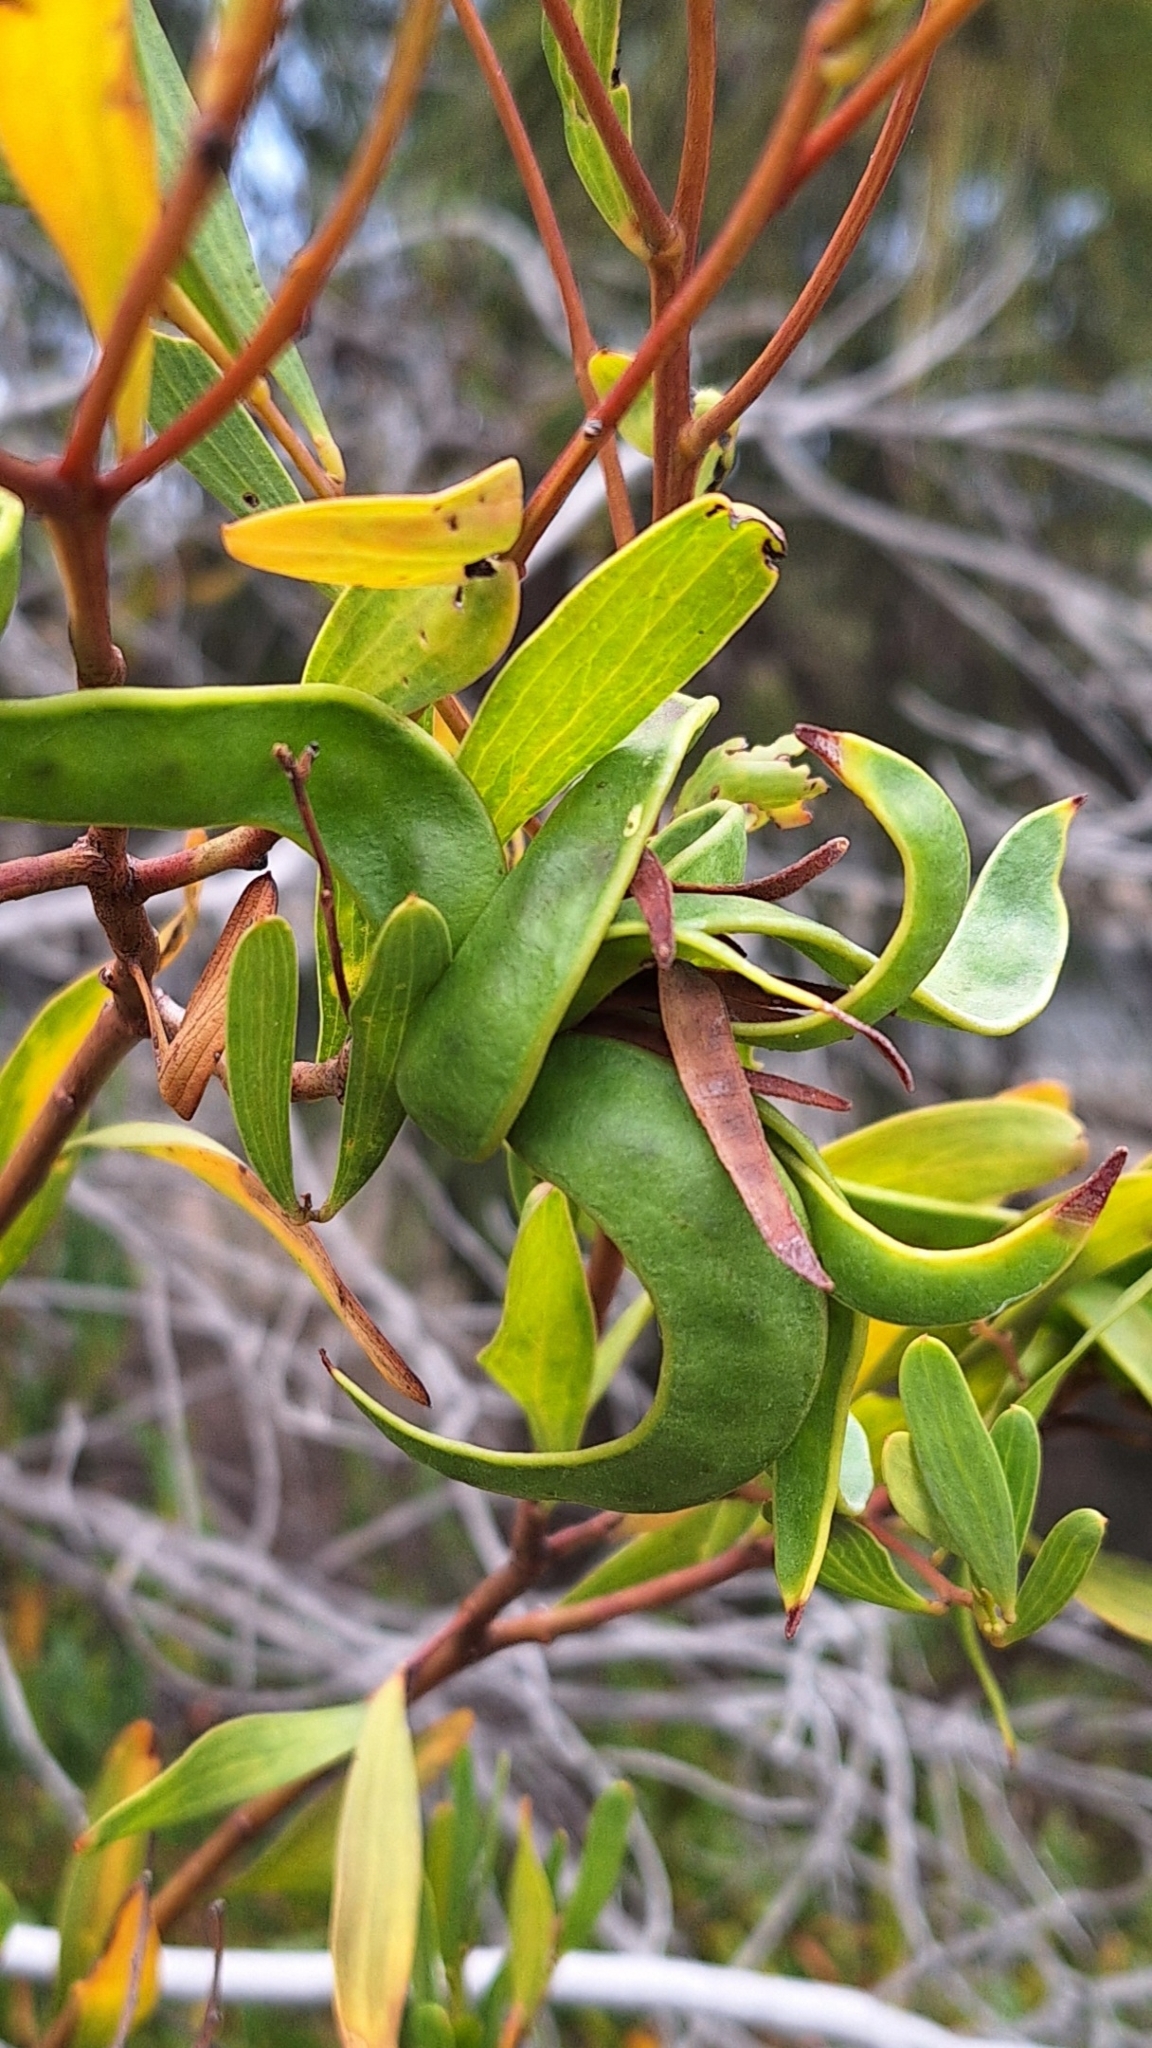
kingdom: Plantae
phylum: Tracheophyta
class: Magnoliopsida
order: Fabales
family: Fabaceae
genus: Acacia
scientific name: Acacia cyclops
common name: Coastal wattle
